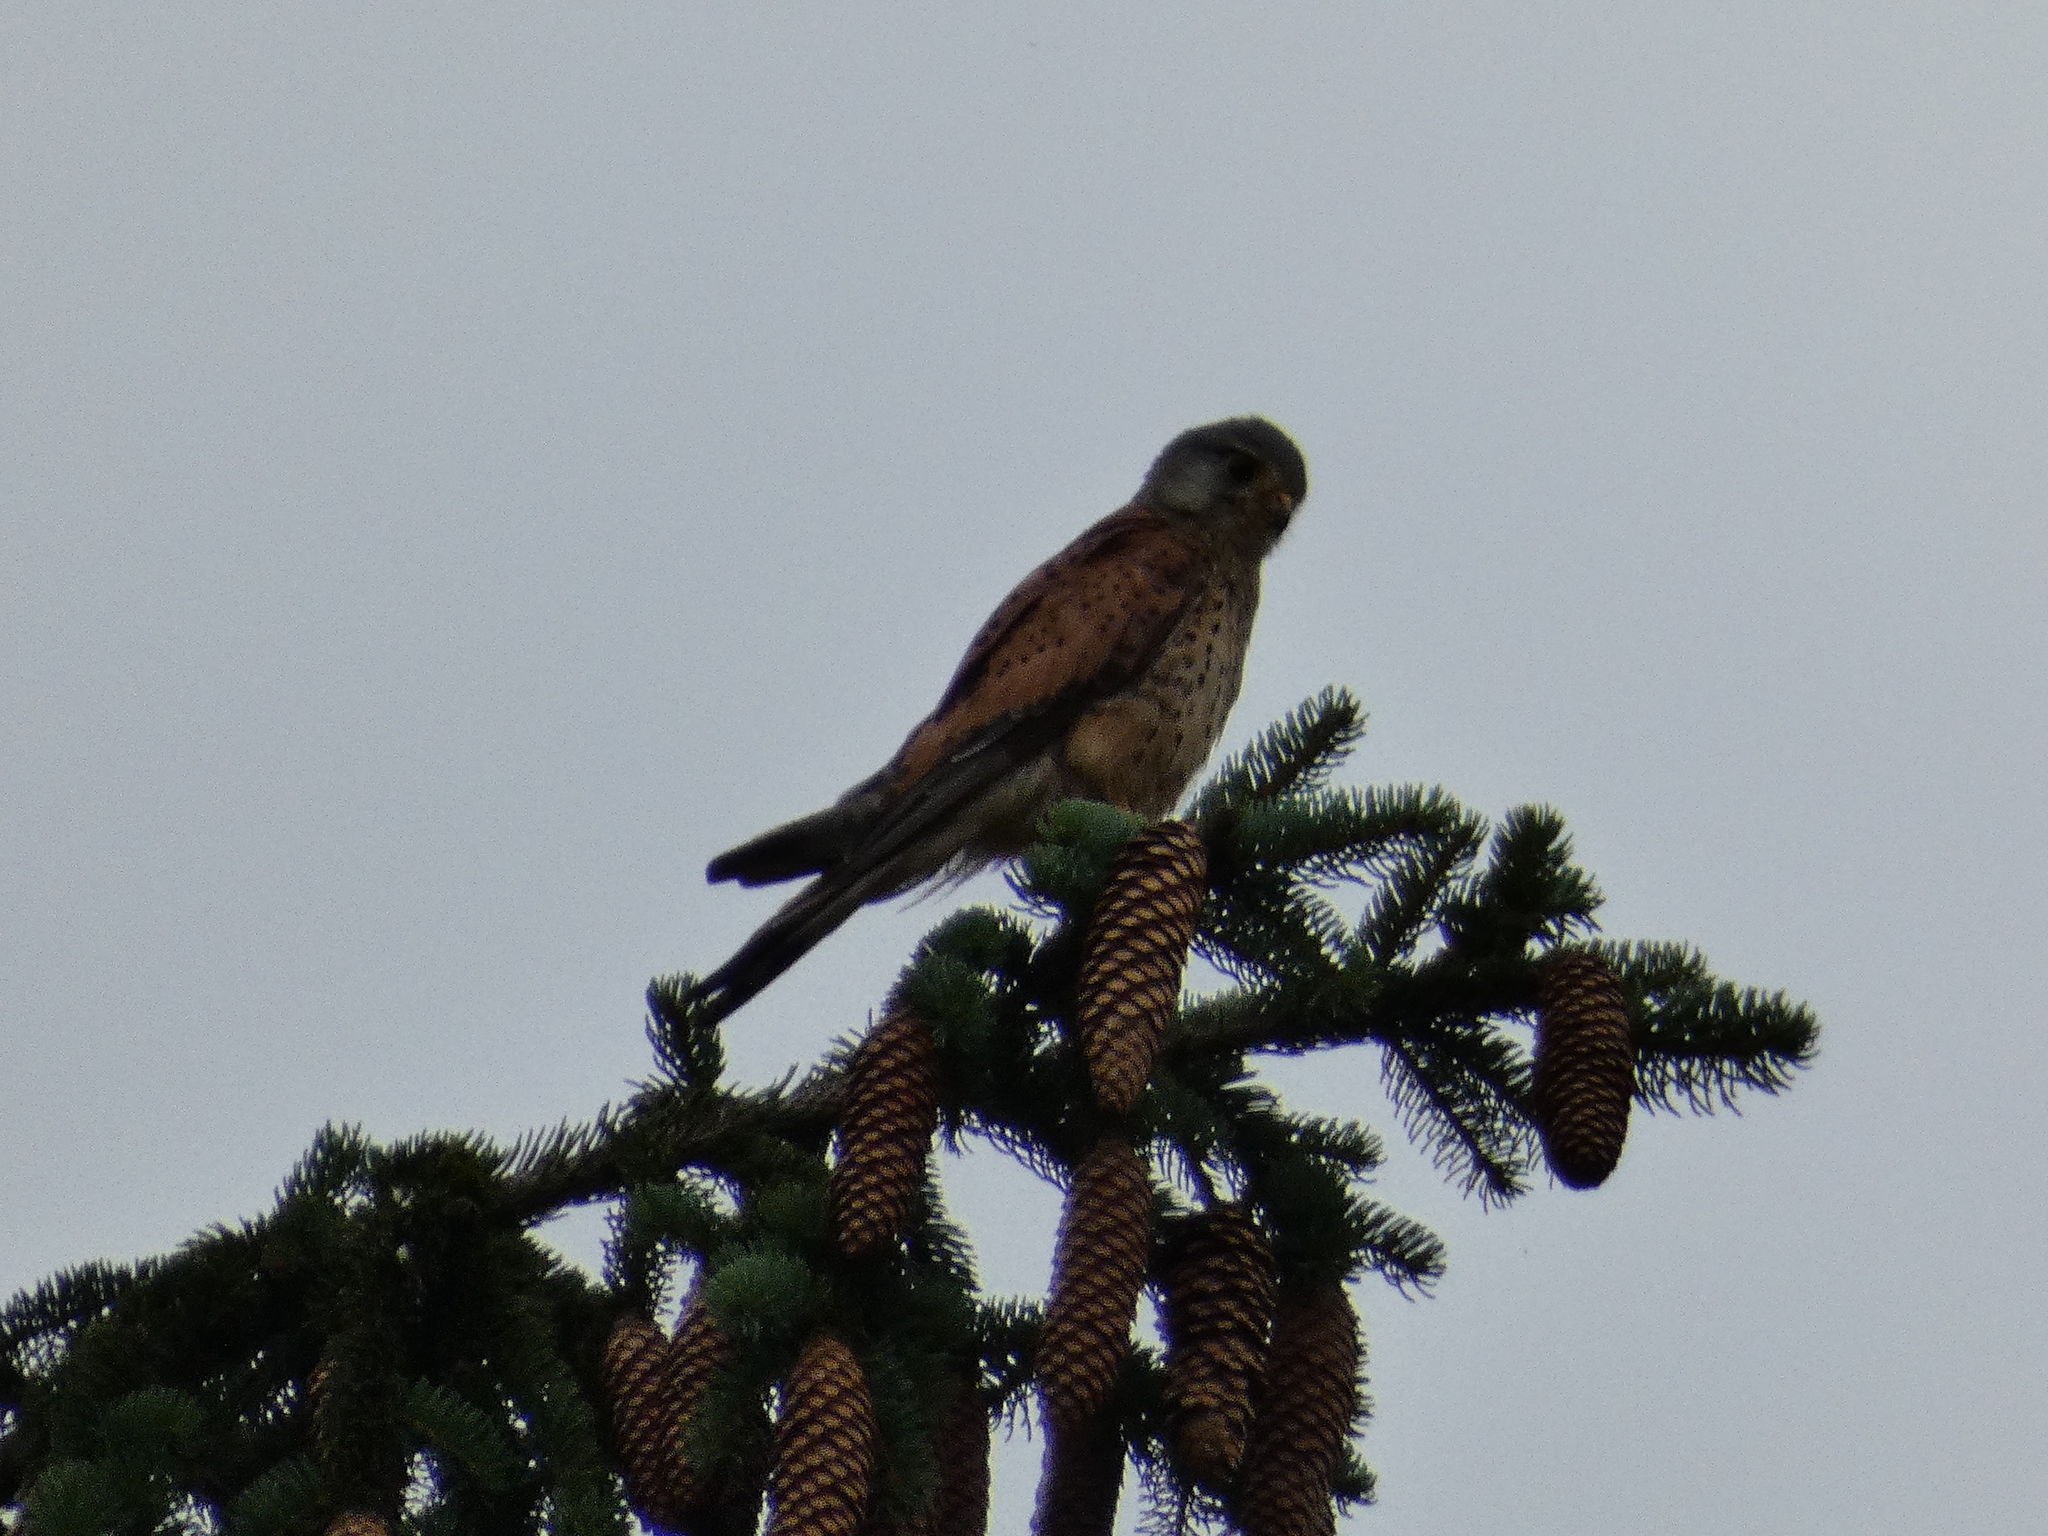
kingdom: Animalia
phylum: Chordata
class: Aves
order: Falconiformes
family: Falconidae
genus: Falco
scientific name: Falco tinnunculus
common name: Common kestrel
